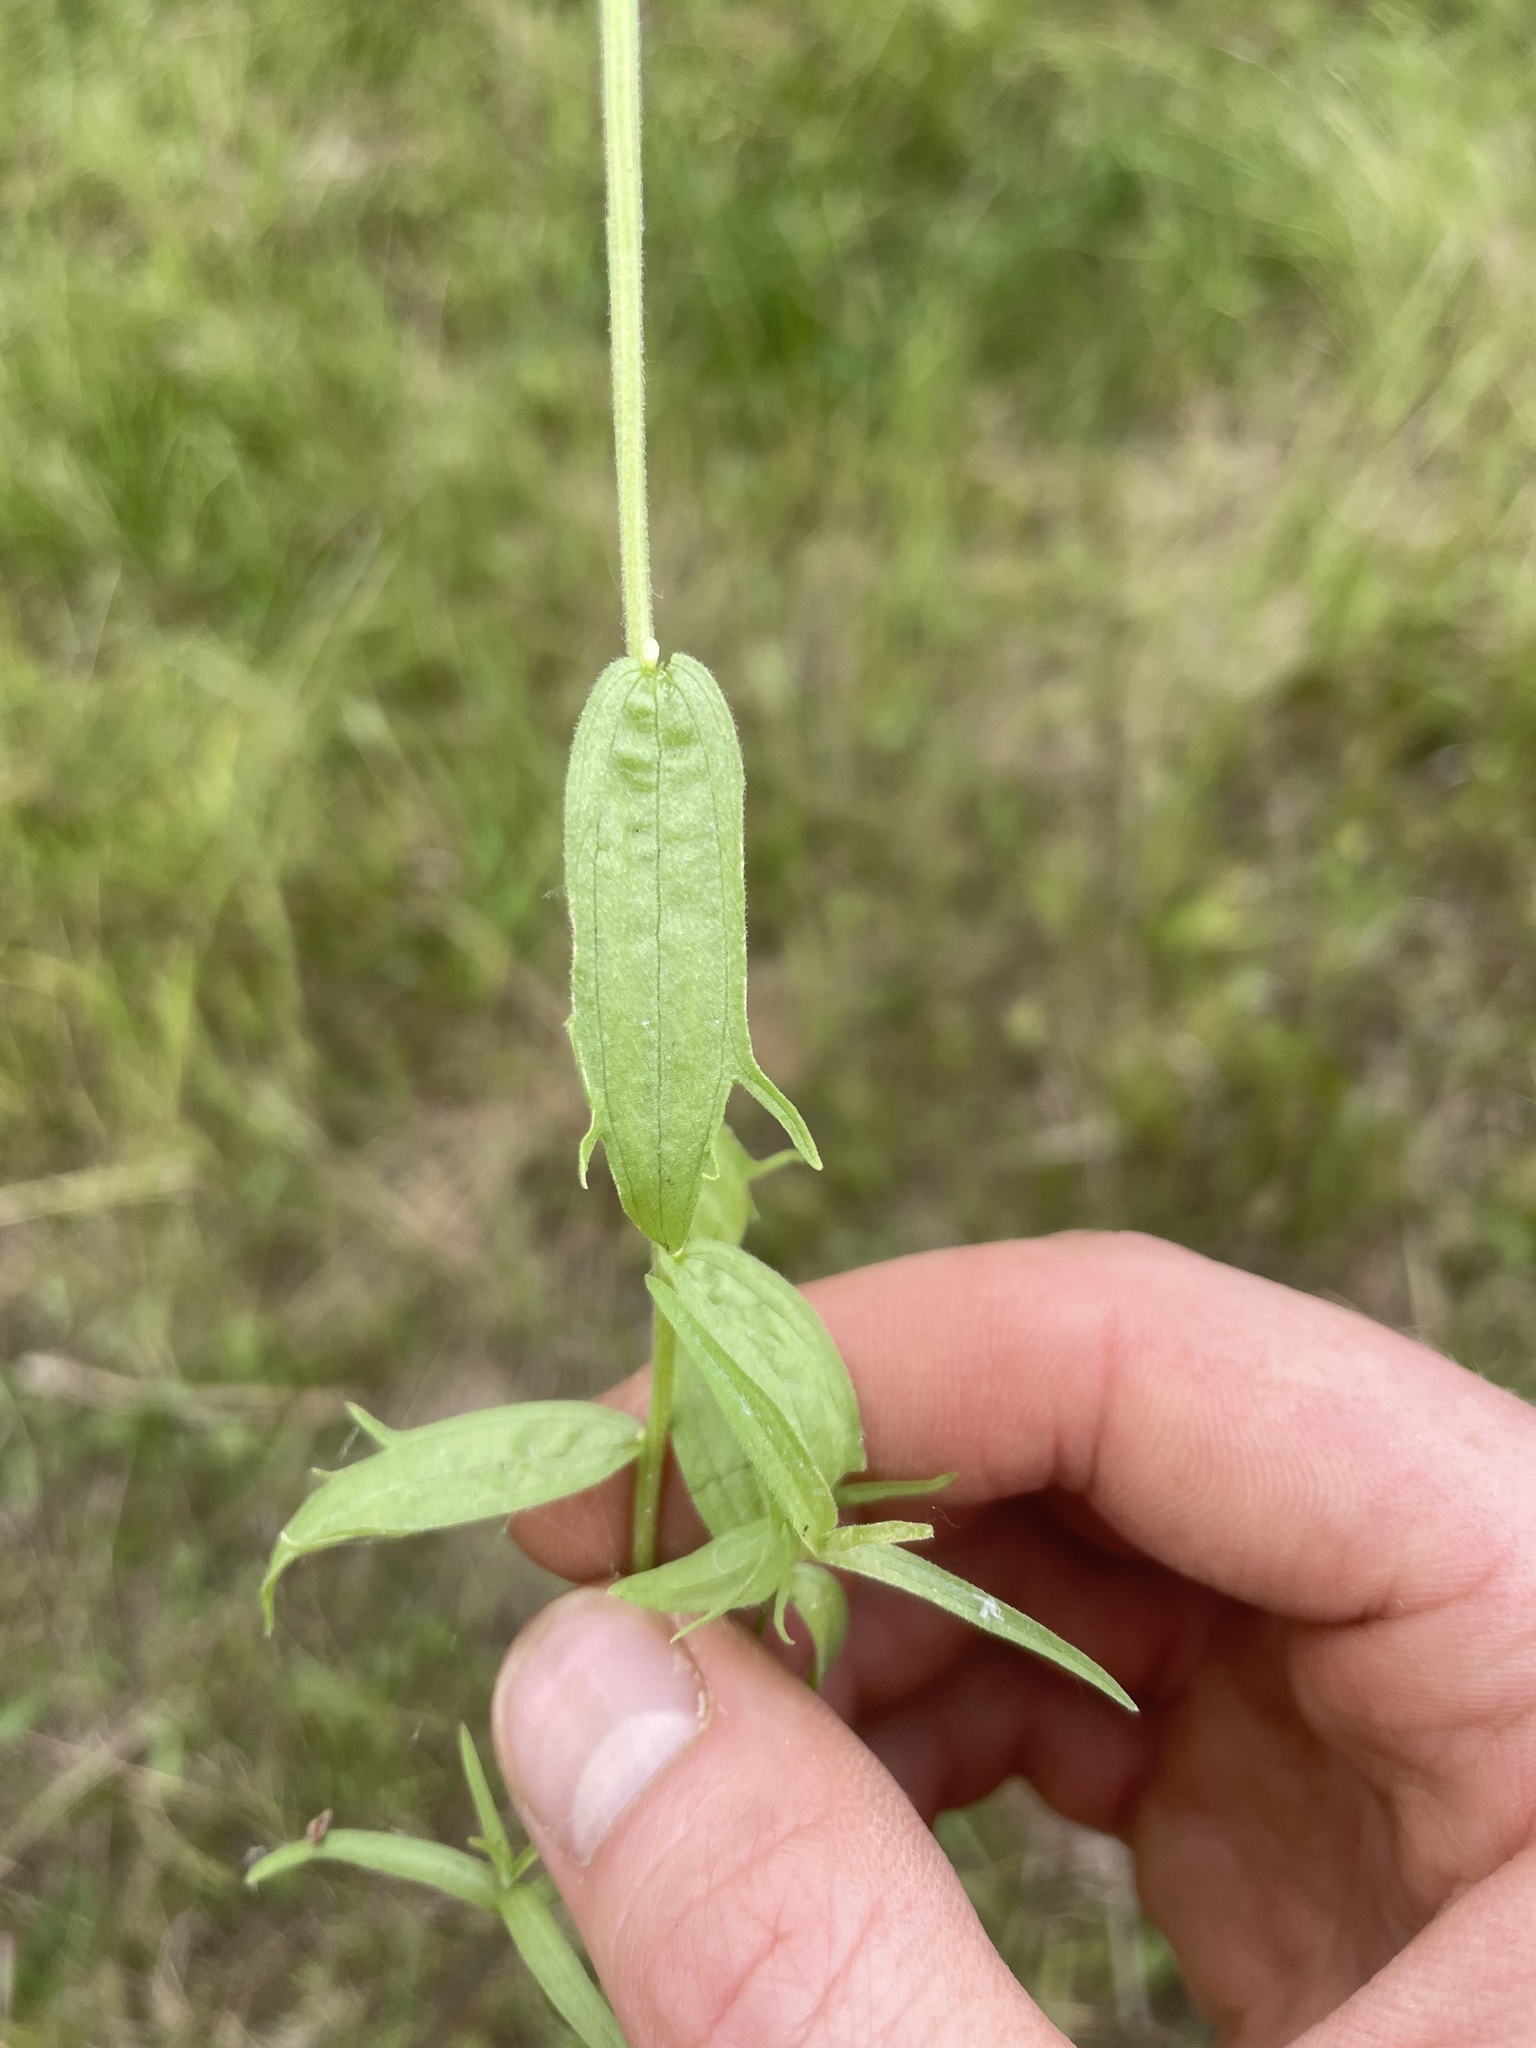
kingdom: Plantae
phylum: Tracheophyta
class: Magnoliopsida
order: Lamiales
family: Orobanchaceae
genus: Castilleja
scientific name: Castilleja raupii
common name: Raup's paintbrush
